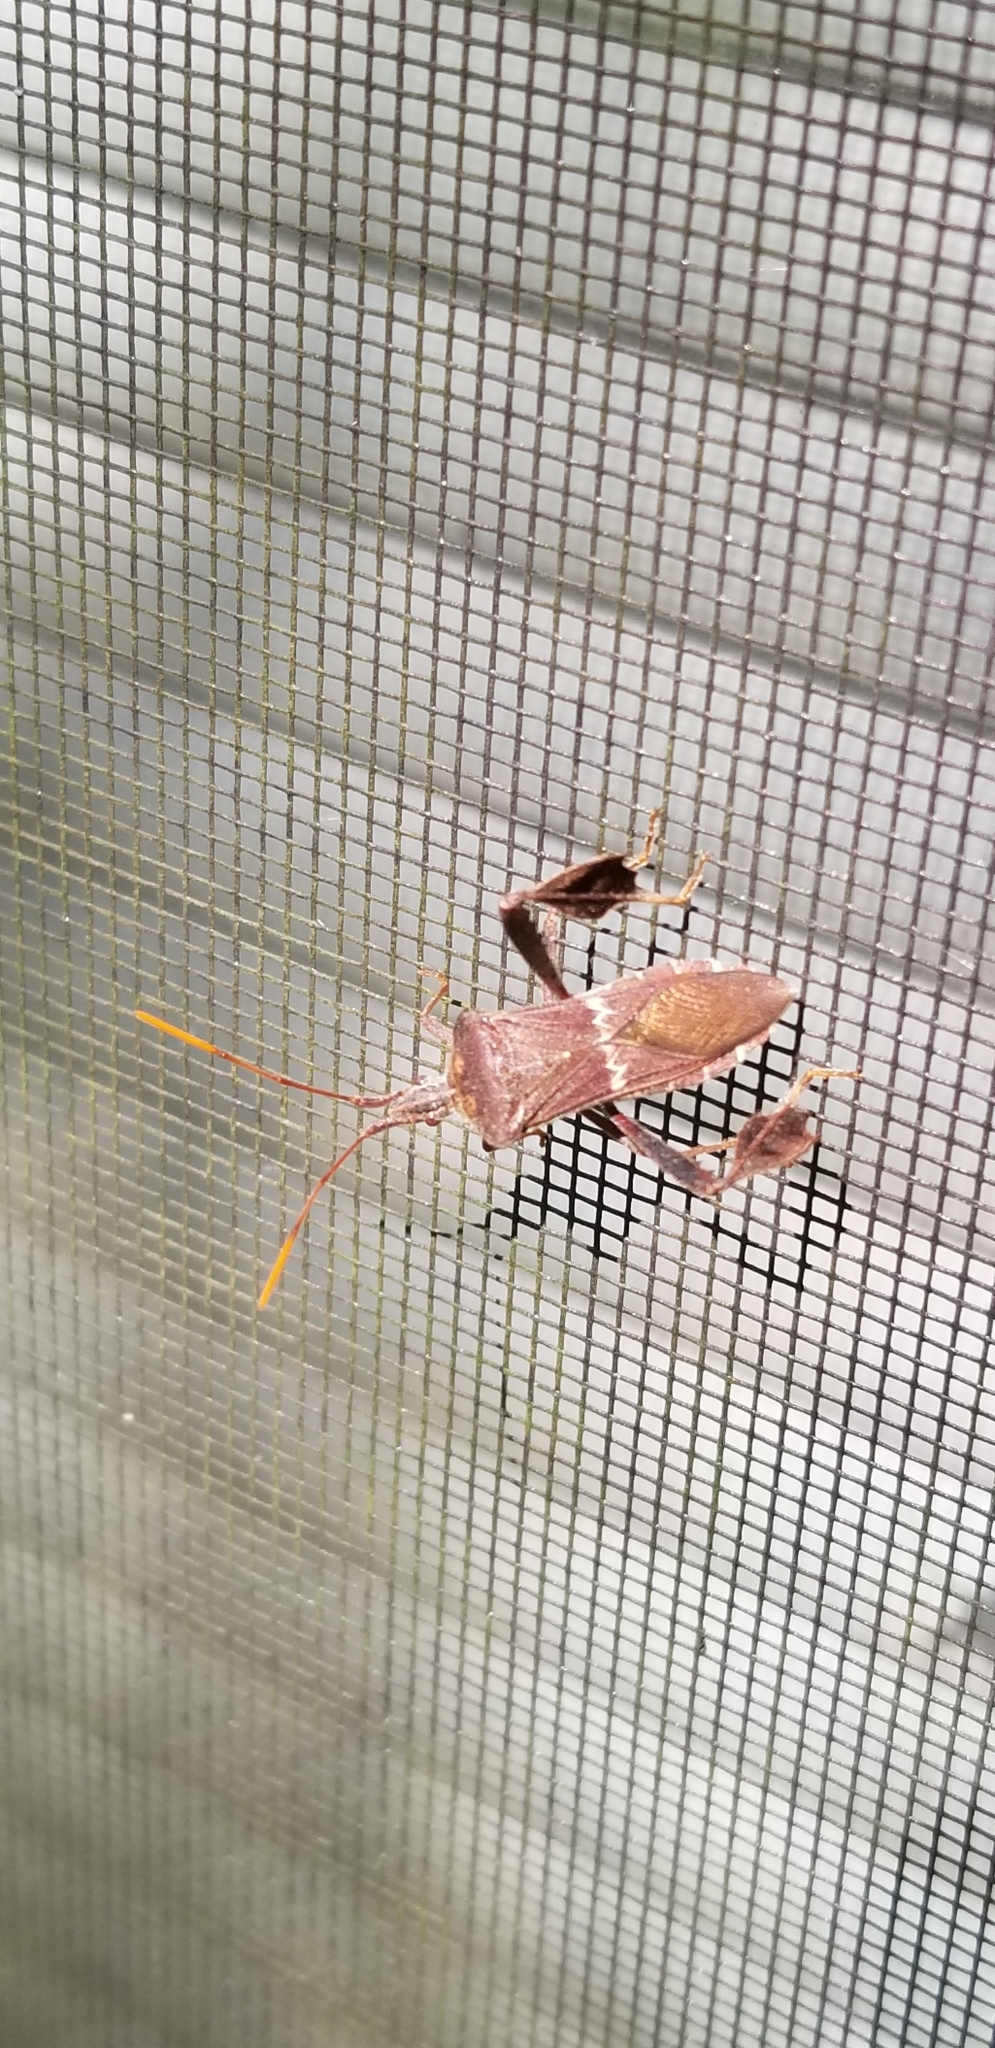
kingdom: Animalia
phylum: Arthropoda
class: Insecta
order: Hemiptera
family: Coreidae
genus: Leptoglossus
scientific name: Leptoglossus zonatus
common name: Large-legged bug
